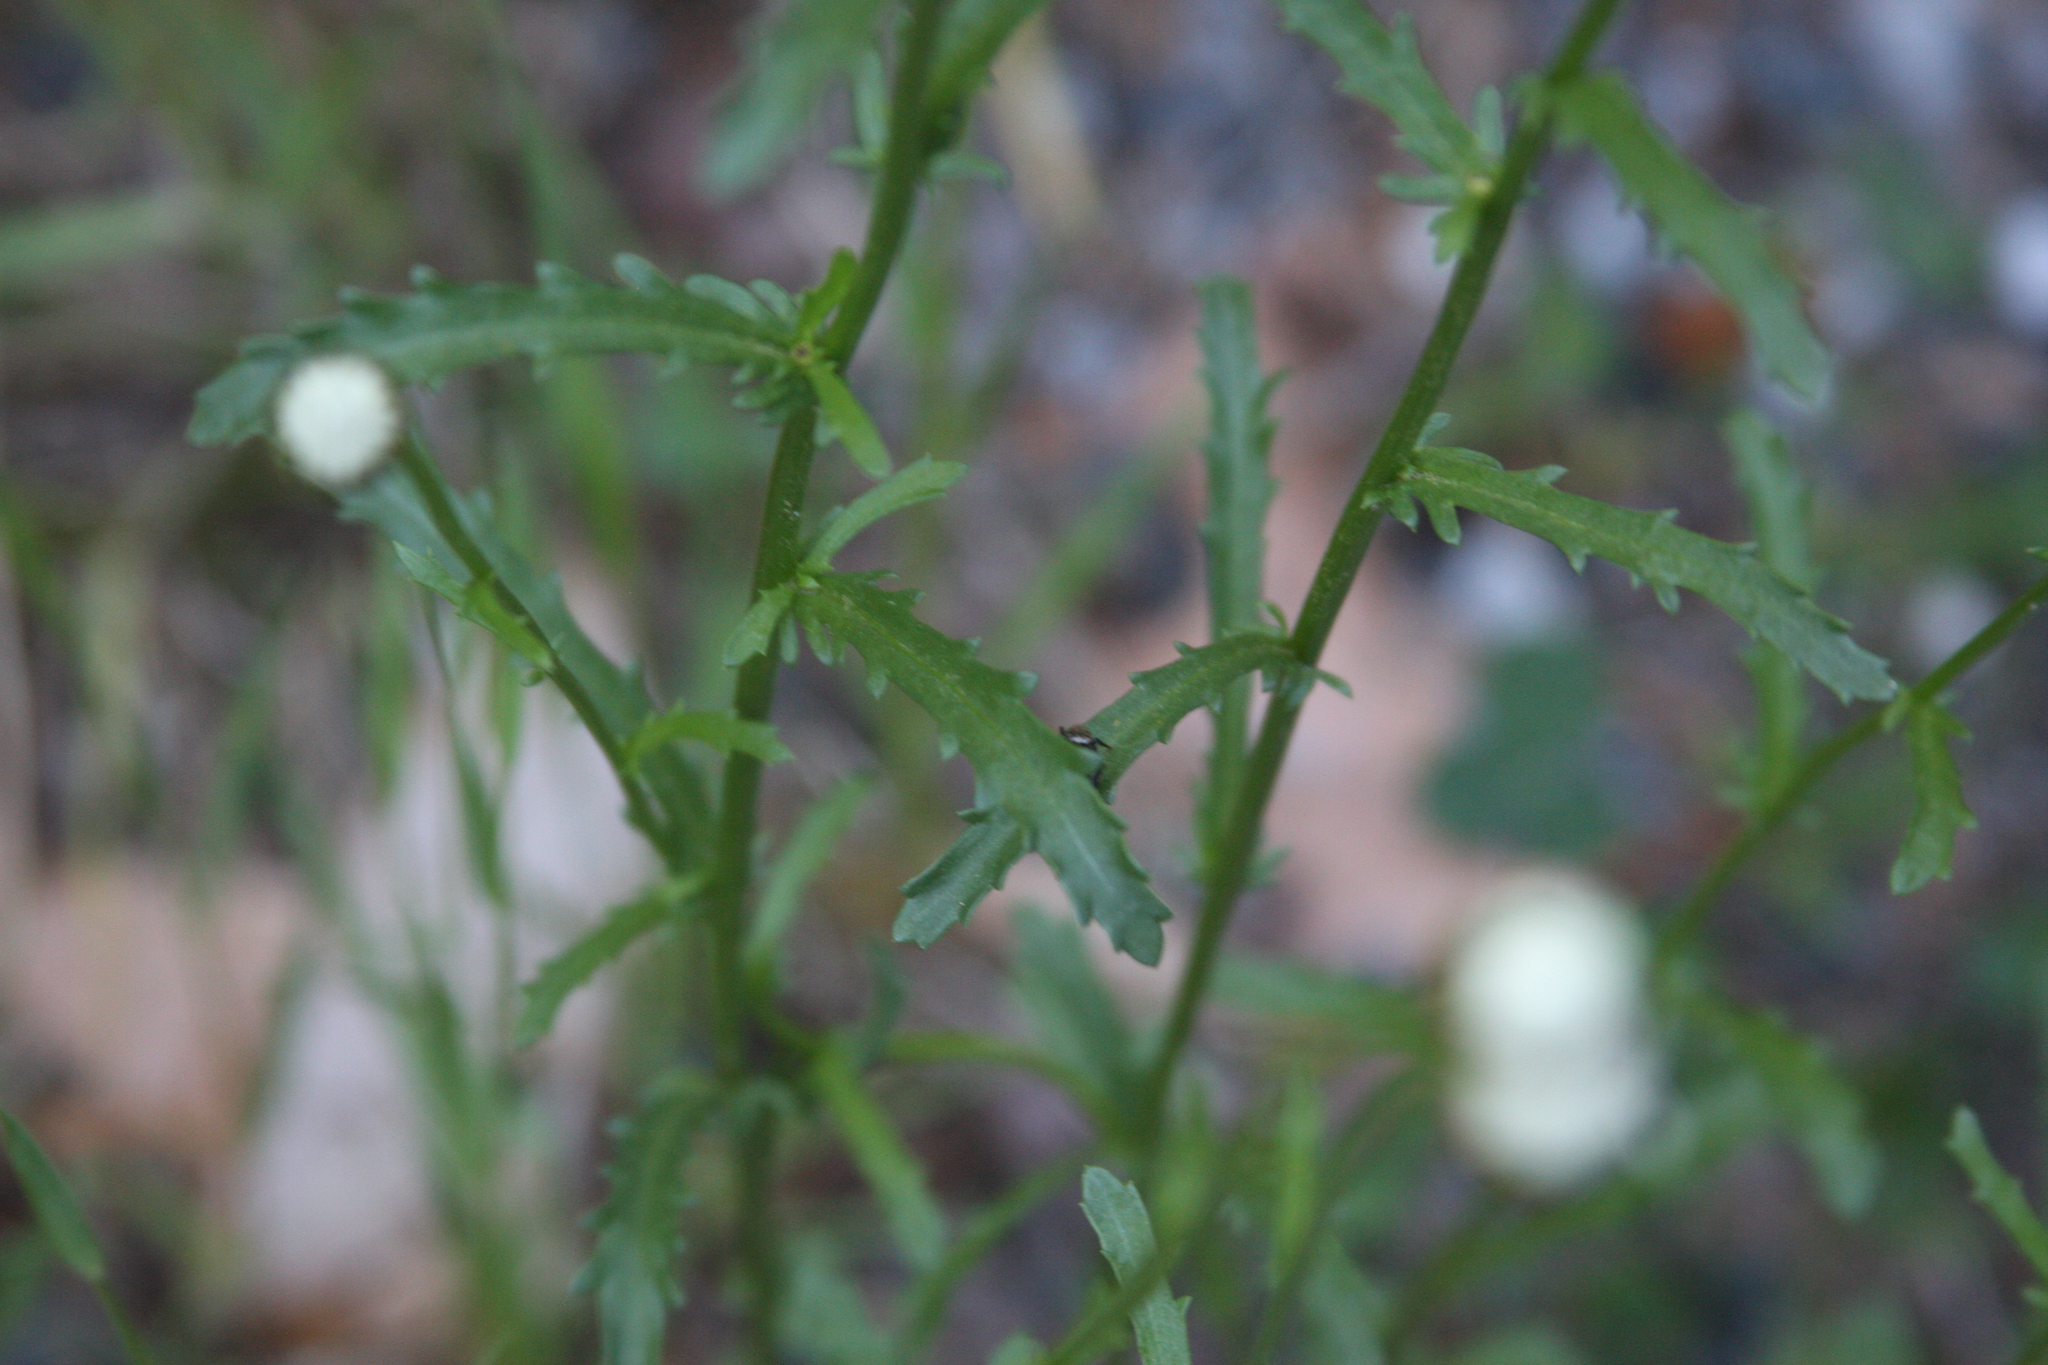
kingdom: Plantae
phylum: Tracheophyta
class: Magnoliopsida
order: Asterales
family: Asteraceae
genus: Leucanthemum
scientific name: Leucanthemum vulgare
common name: Oxeye daisy
